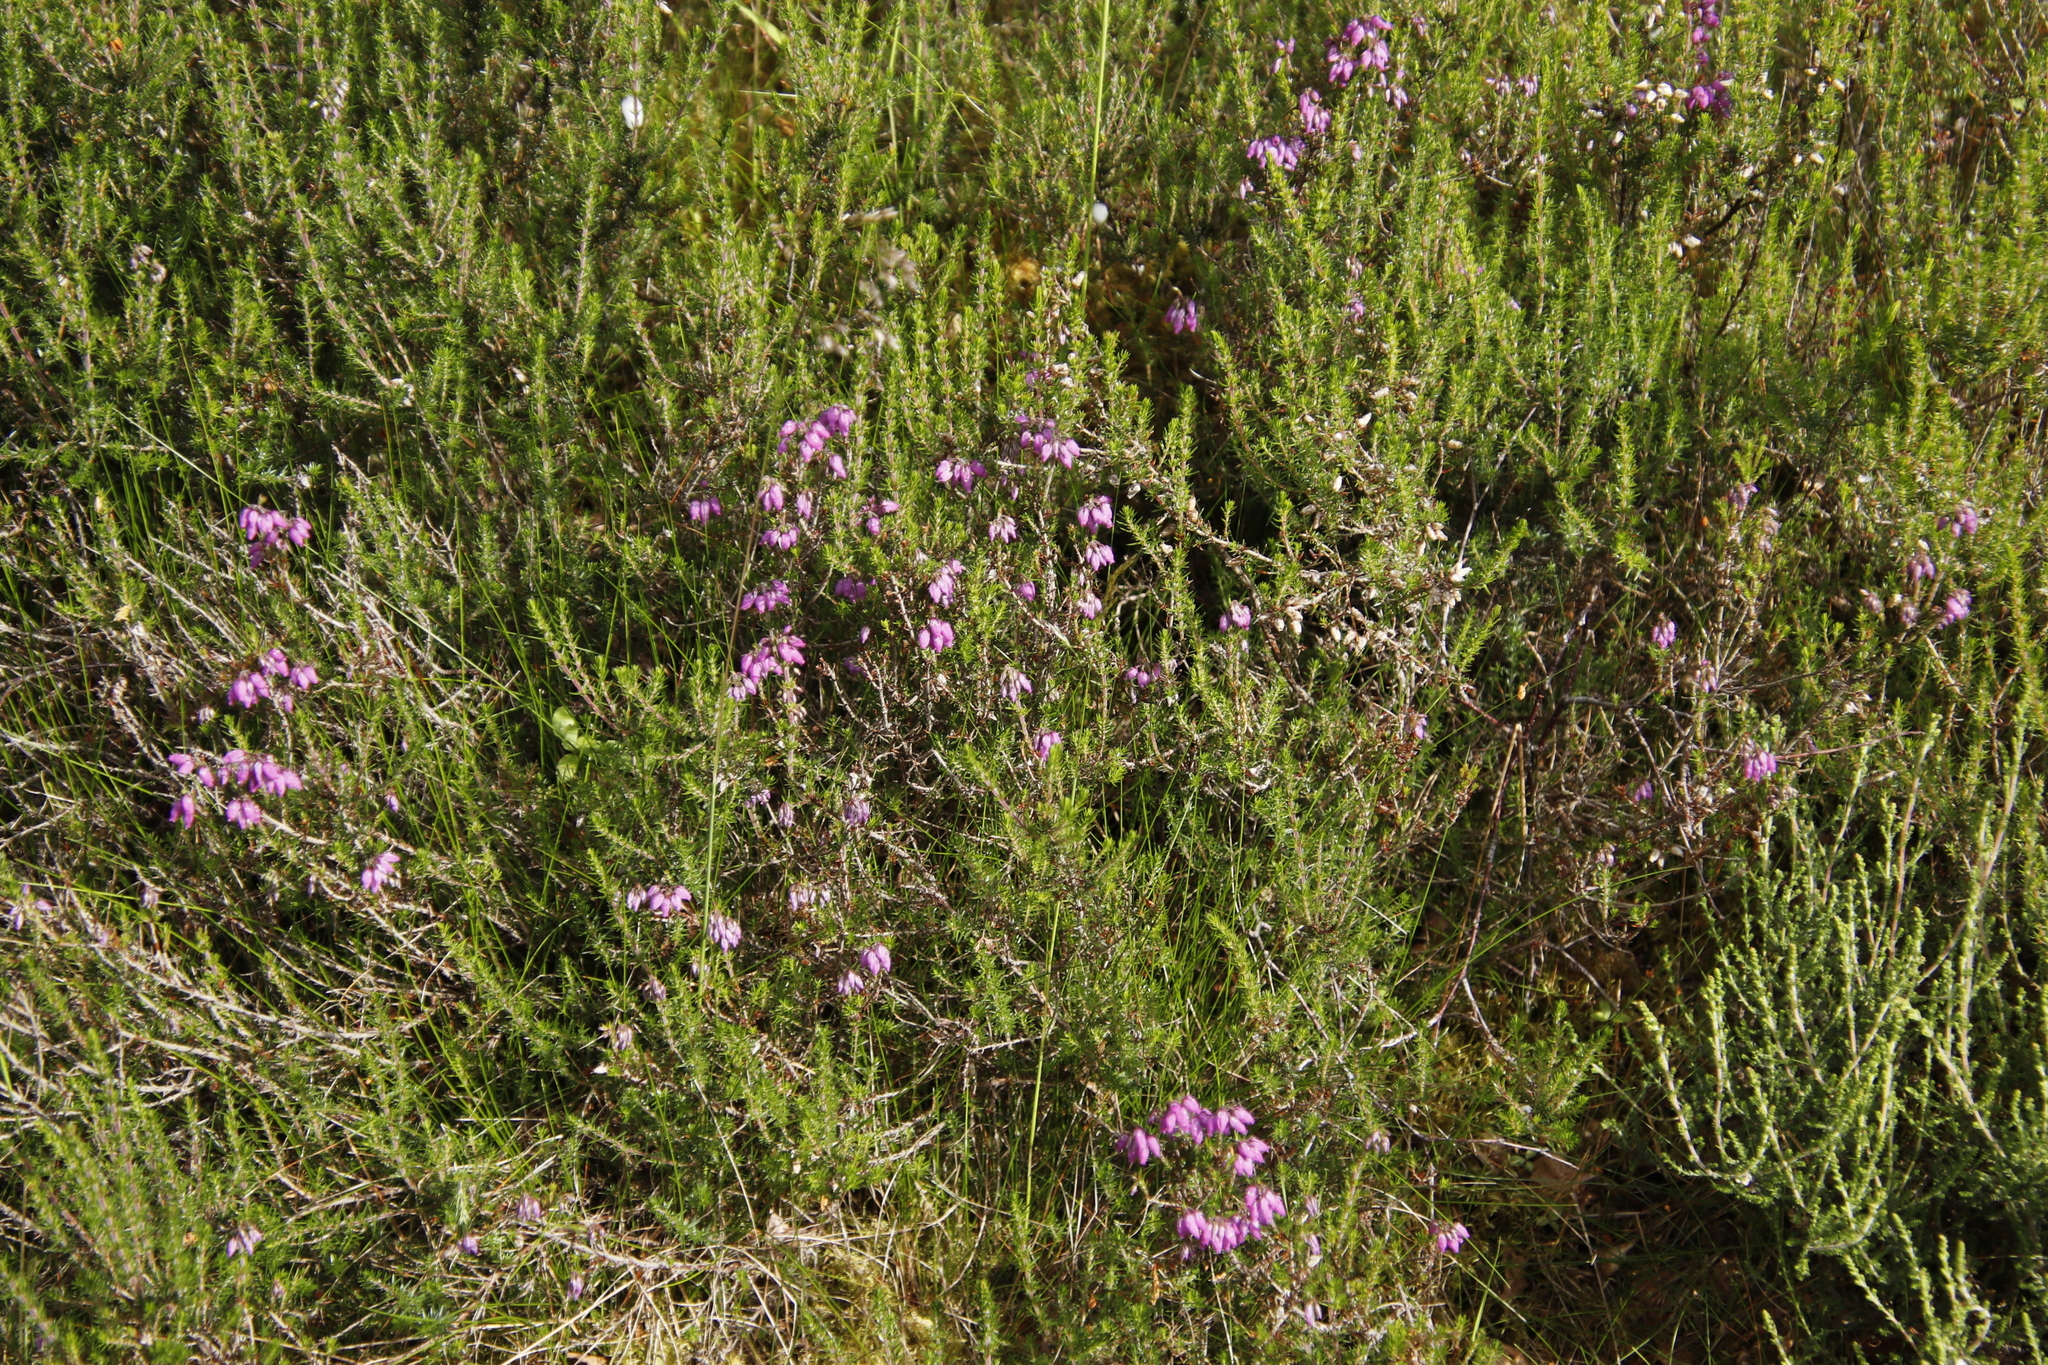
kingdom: Plantae
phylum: Tracheophyta
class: Magnoliopsida
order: Ericales
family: Ericaceae
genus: Erica
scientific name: Erica cinerea
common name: Bell heather
